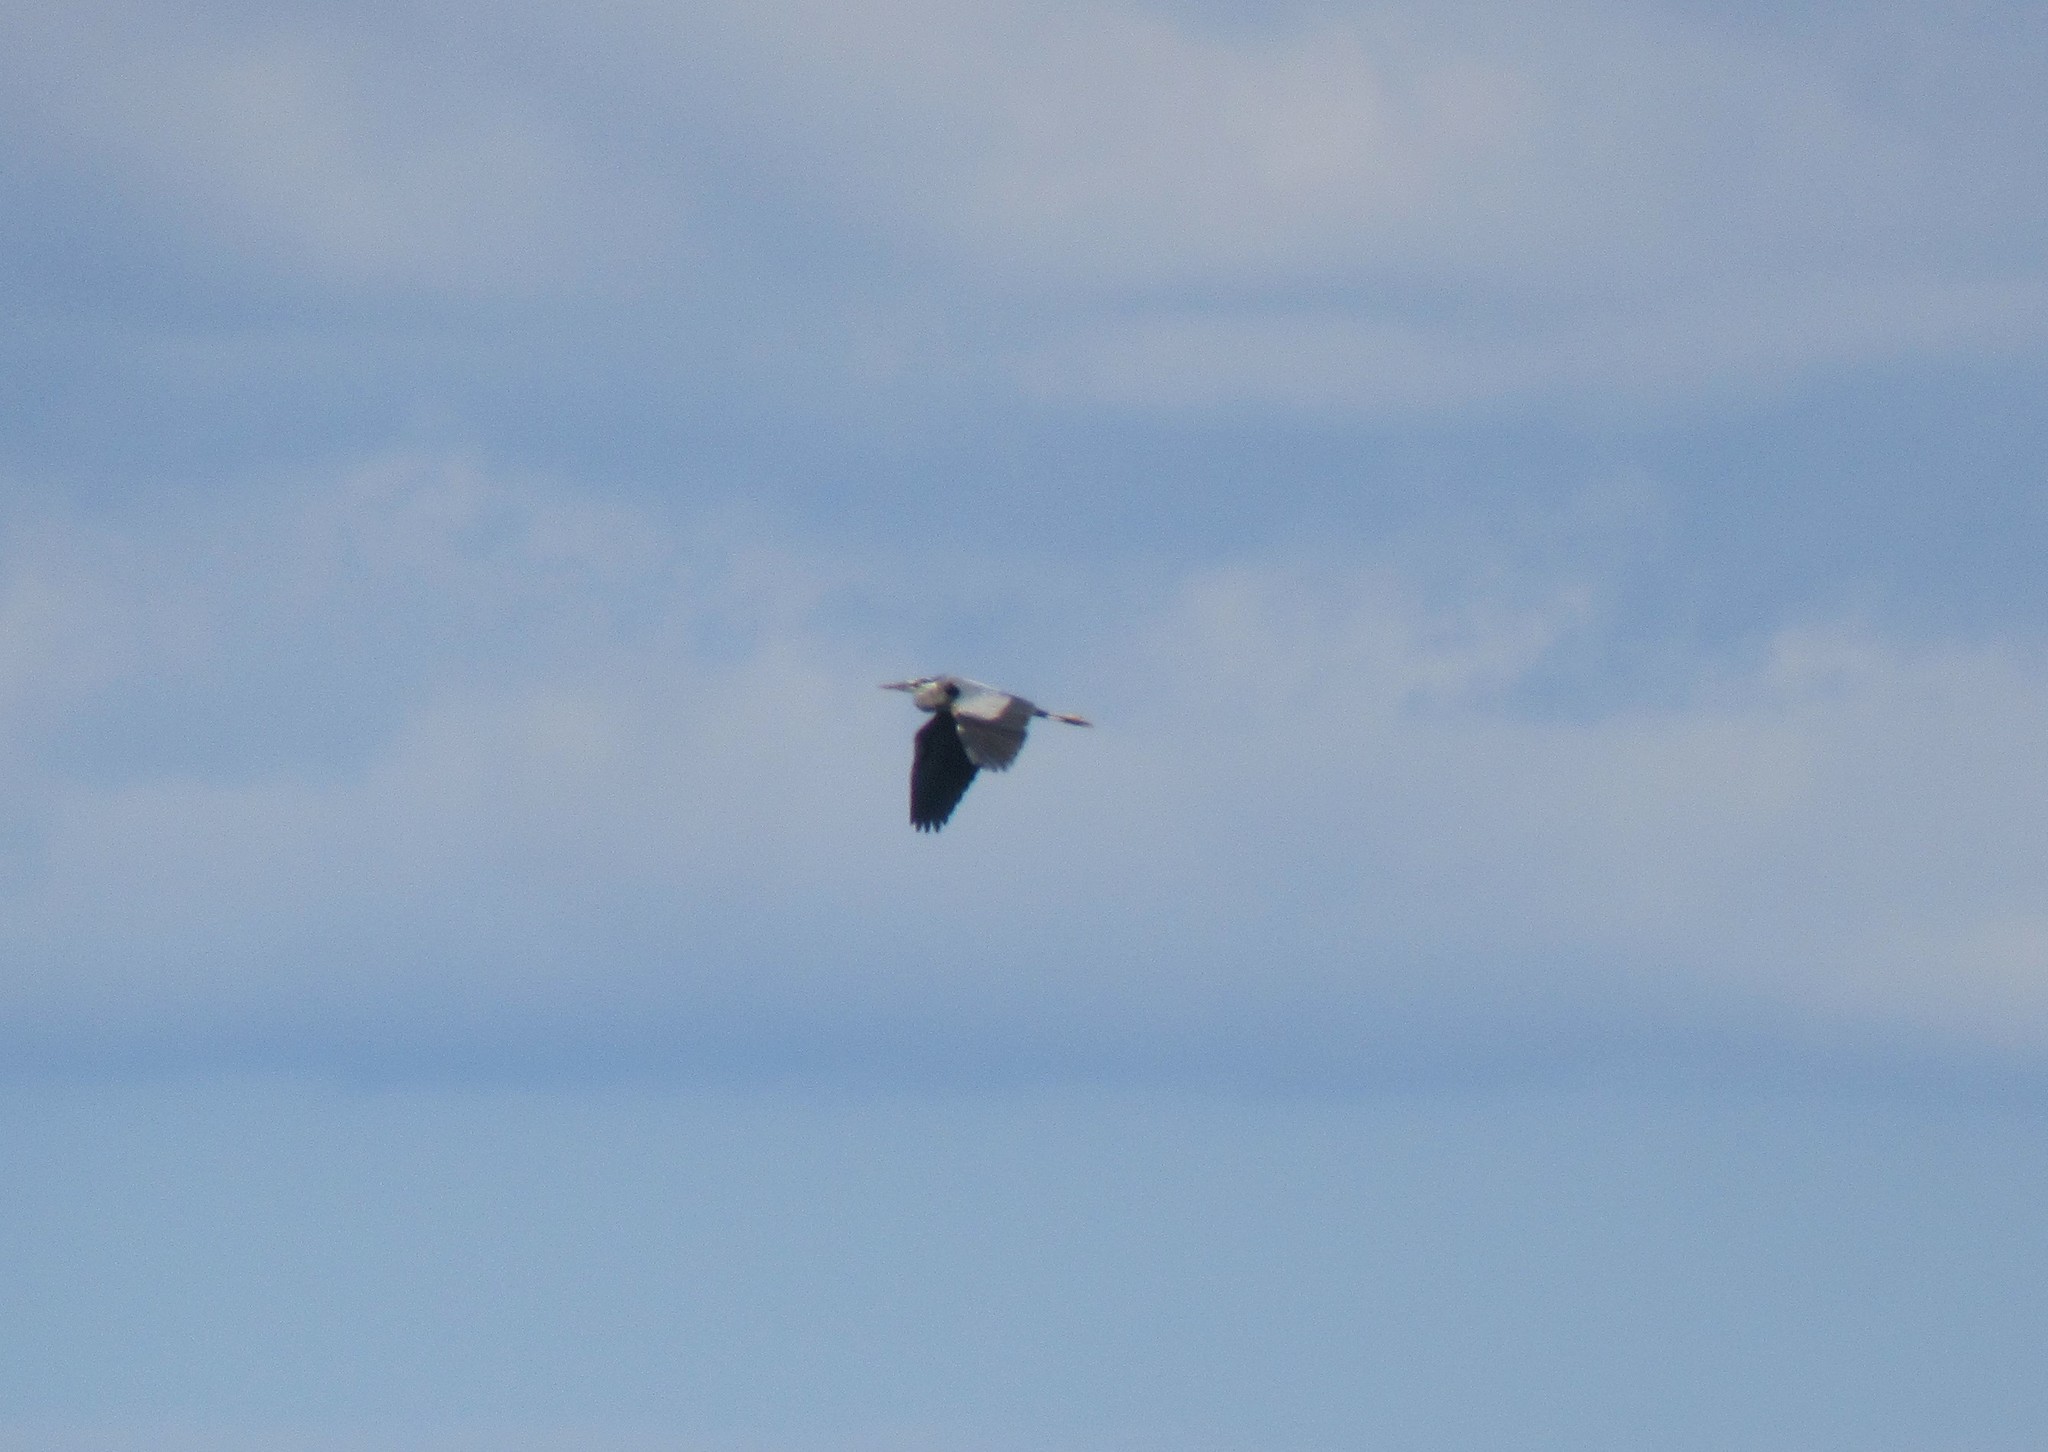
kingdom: Animalia
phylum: Chordata
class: Aves
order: Pelecaniformes
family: Ardeidae
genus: Ardea
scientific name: Ardea herodias
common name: Great blue heron
